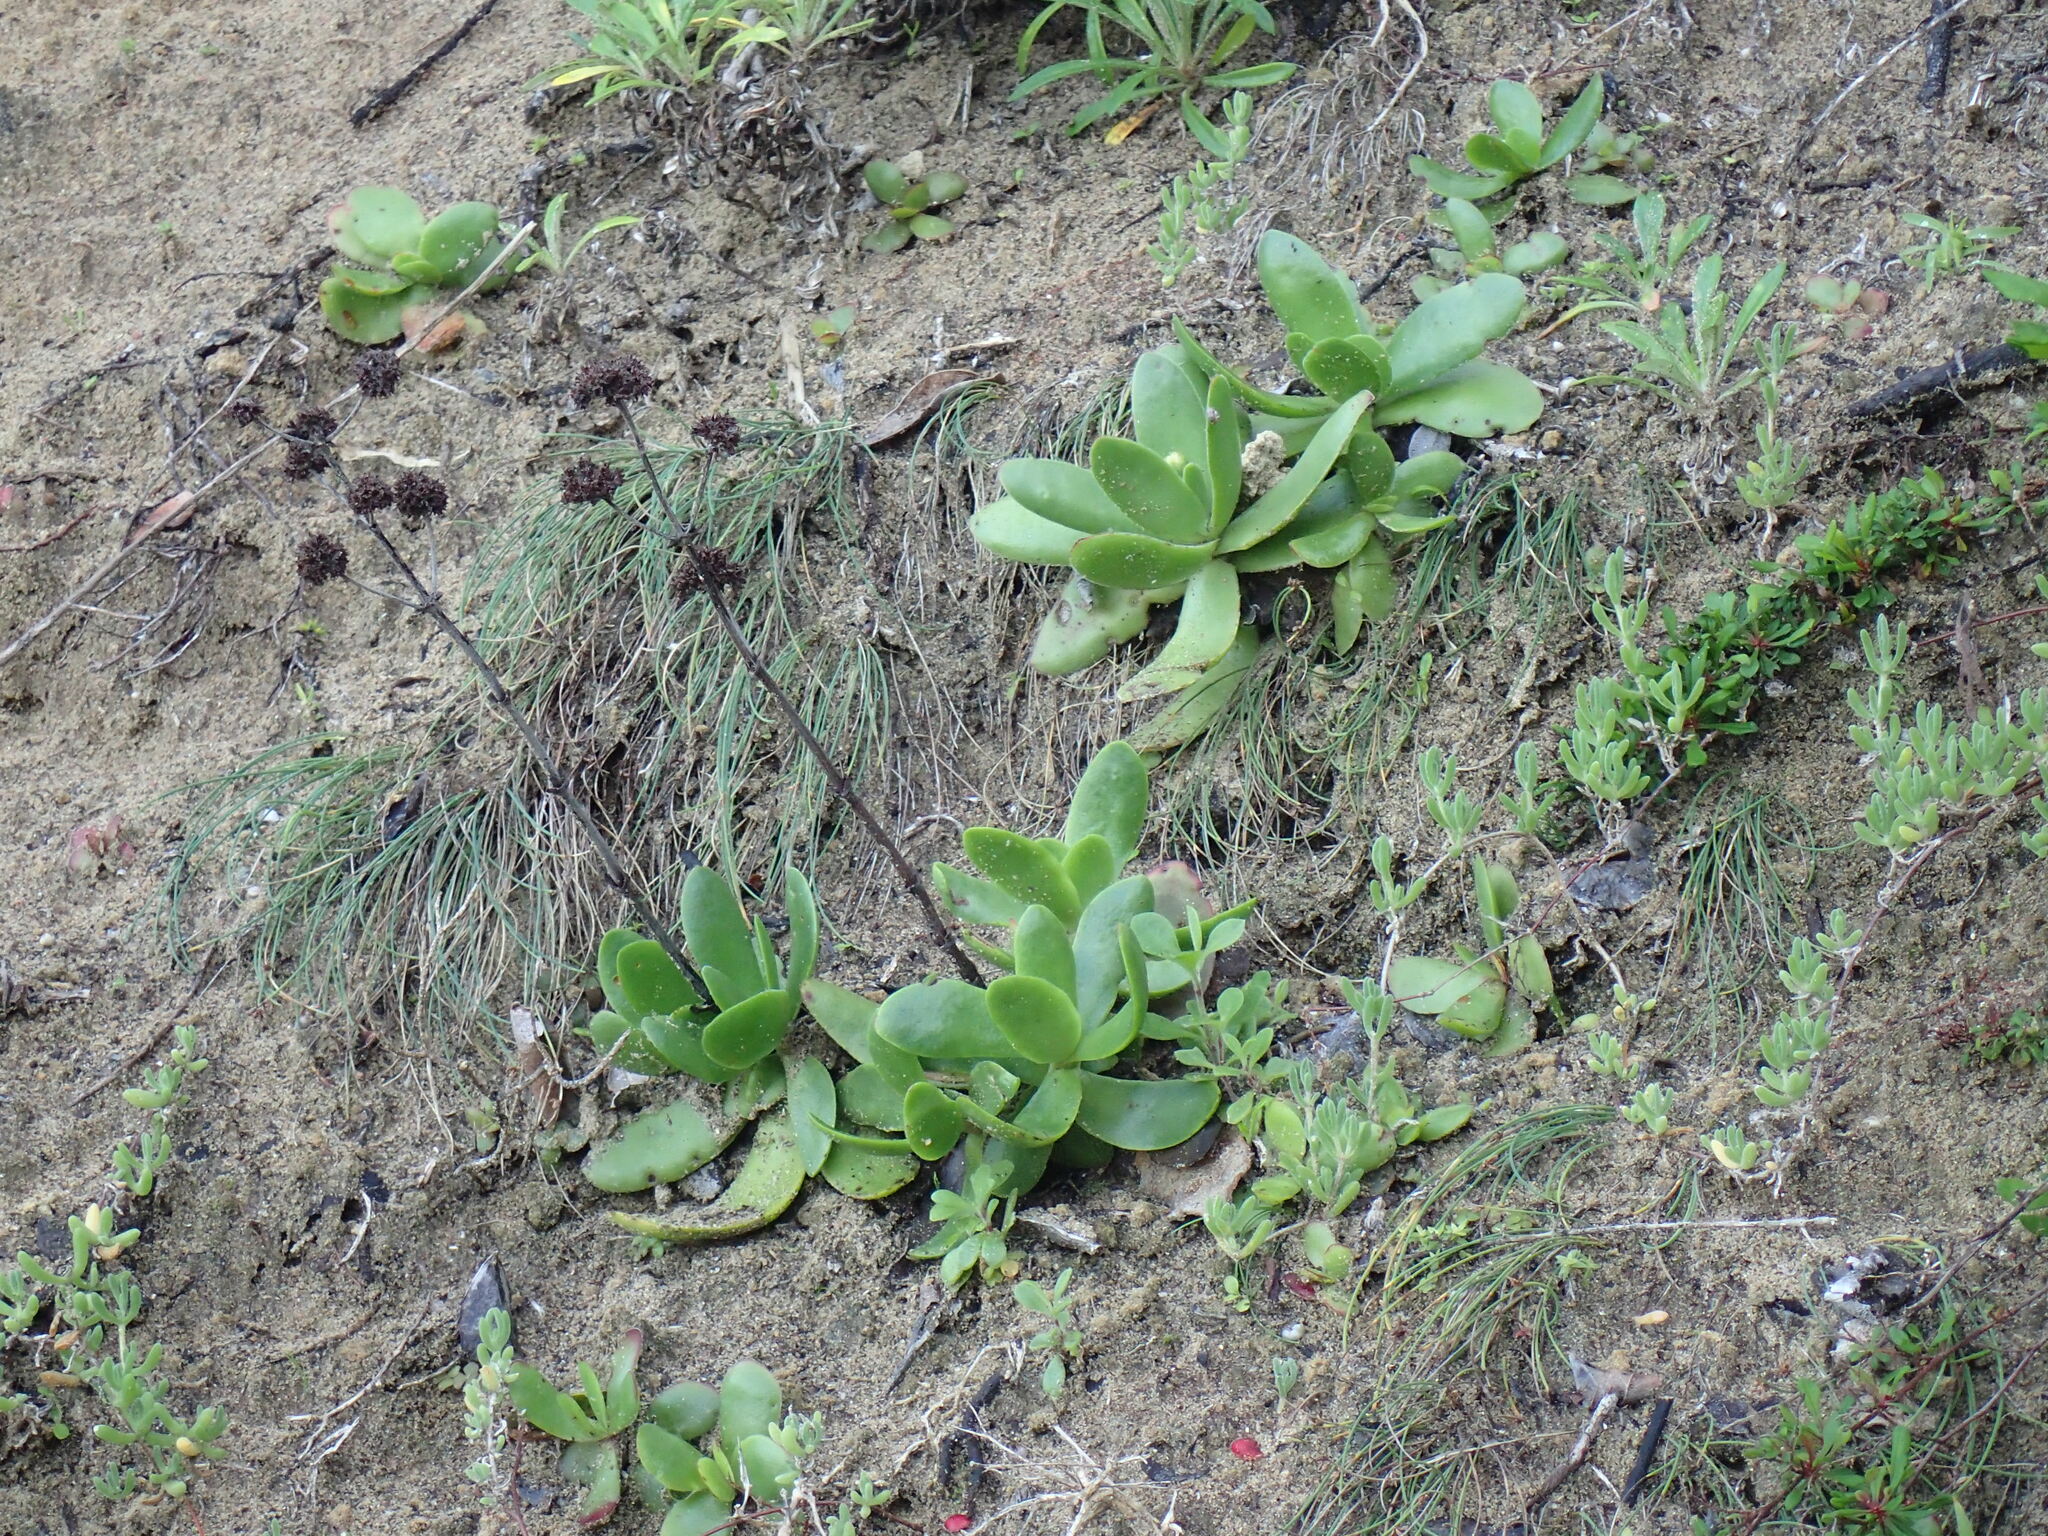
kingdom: Plantae
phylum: Tracheophyta
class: Magnoliopsida
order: Saxifragales
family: Crassulaceae
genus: Crassula
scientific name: Crassula nudicaulis
